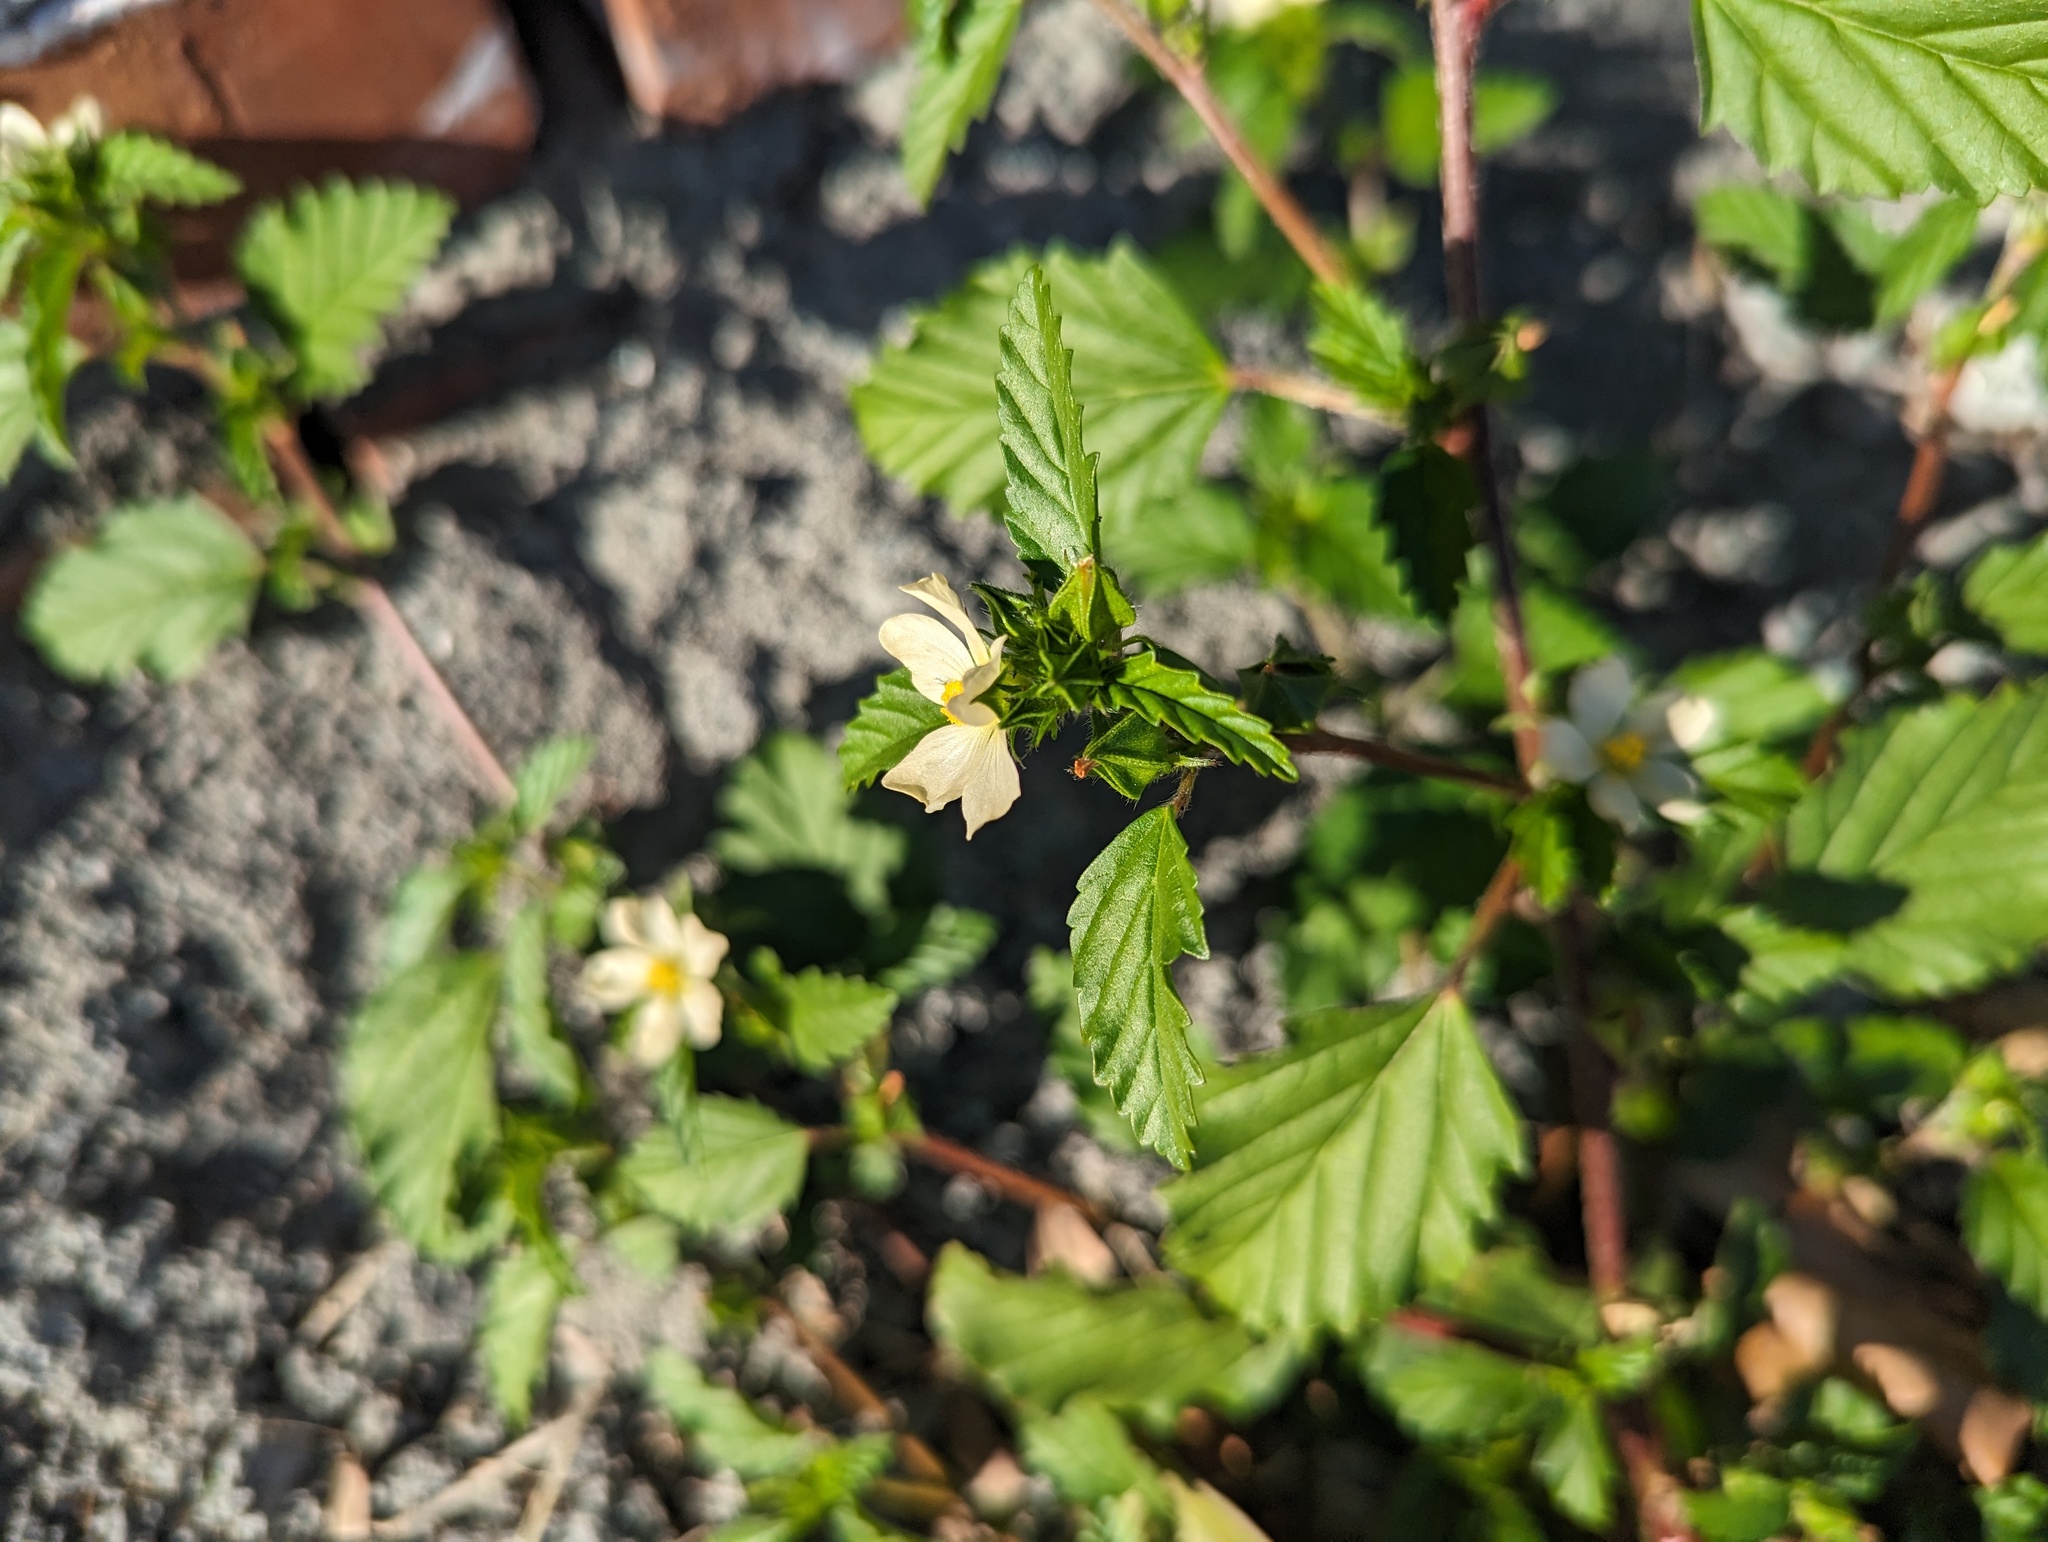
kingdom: Plantae
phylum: Tracheophyta
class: Magnoliopsida
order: Malvales
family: Malvaceae
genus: Malvastrum
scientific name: Malvastrum coromandelianum
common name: Threelobe false mallow
